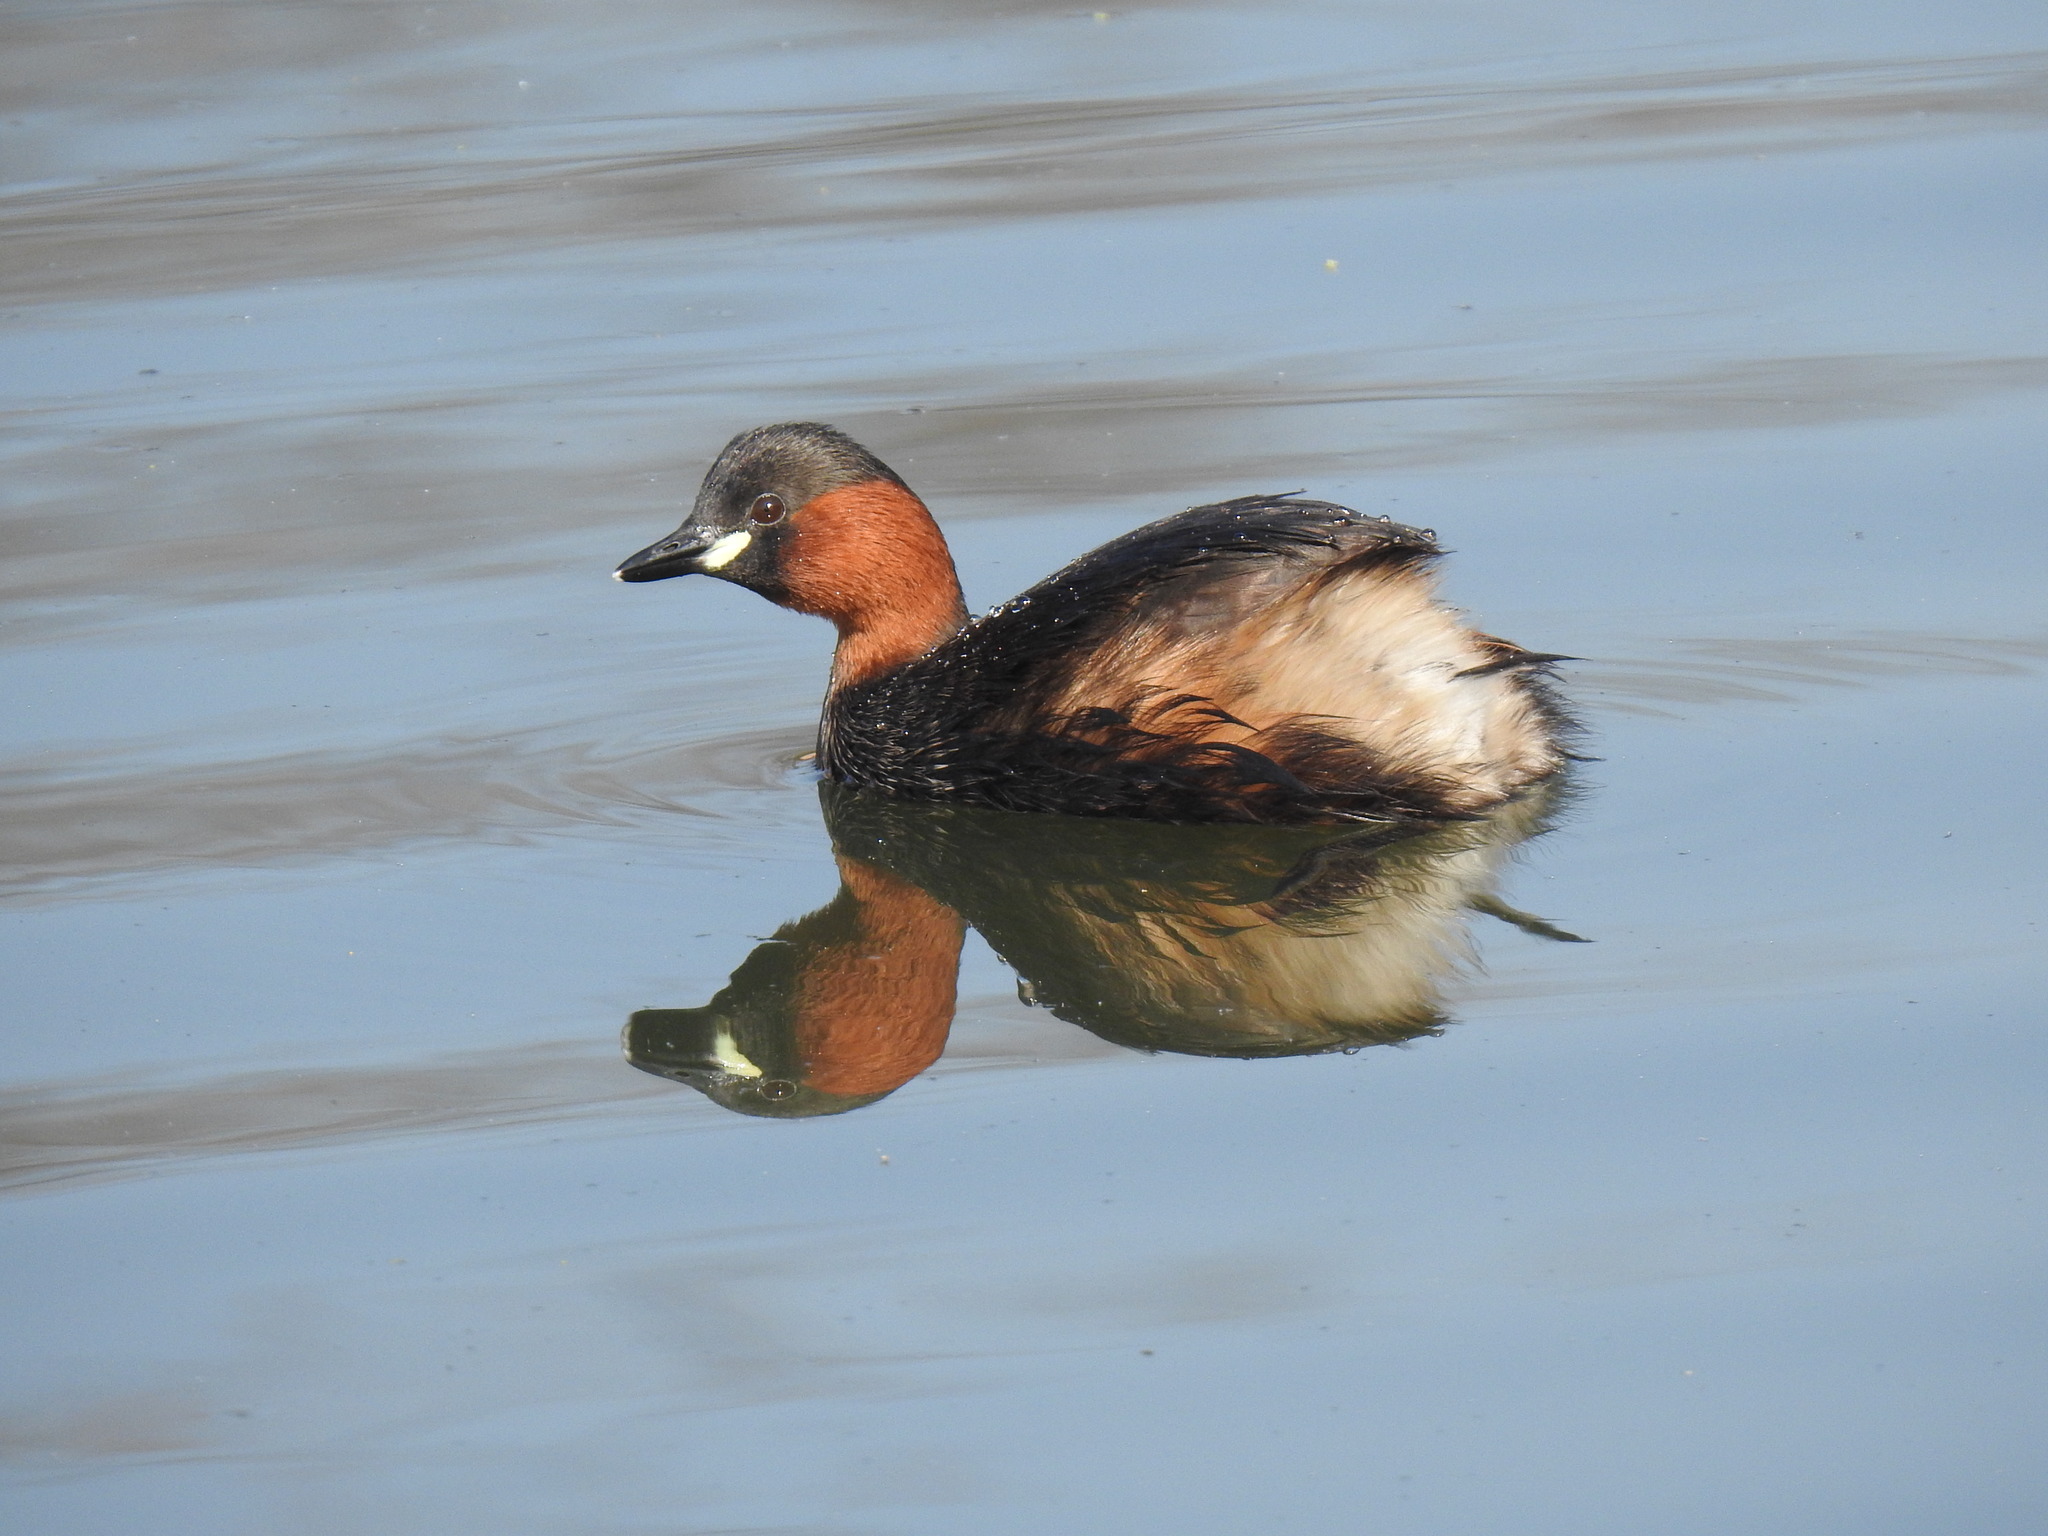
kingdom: Animalia
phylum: Chordata
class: Aves
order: Podicipediformes
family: Podicipedidae
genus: Tachybaptus
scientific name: Tachybaptus ruficollis
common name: Little grebe
